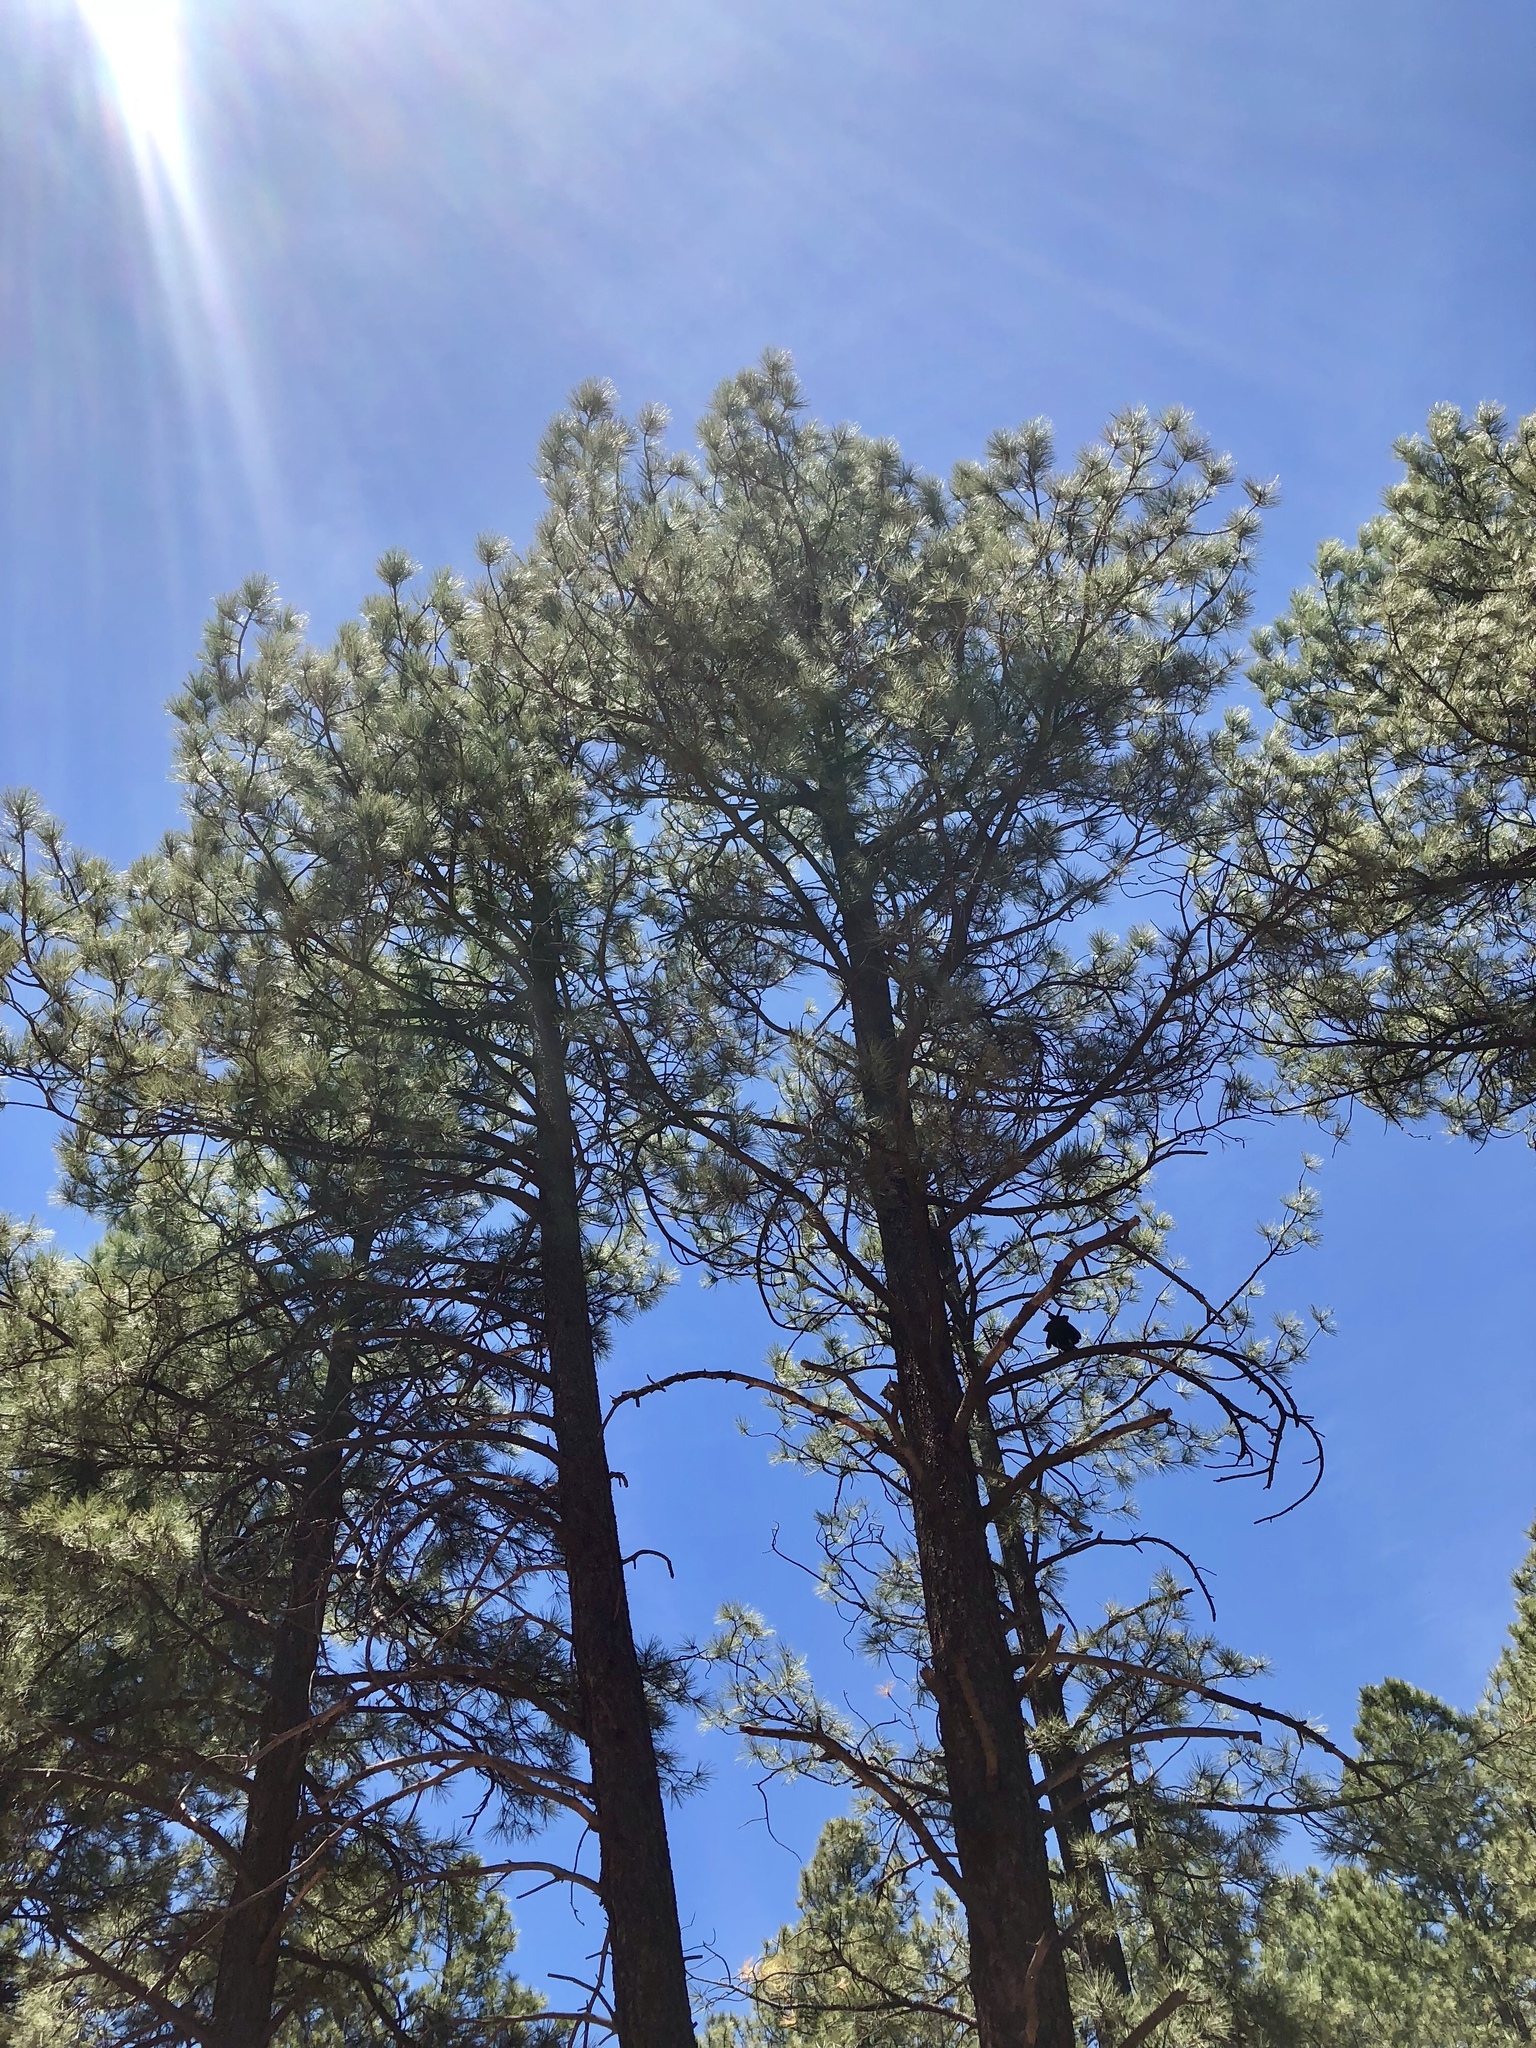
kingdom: Plantae
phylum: Tracheophyta
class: Pinopsida
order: Pinales
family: Pinaceae
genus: Pinus
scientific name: Pinus ponderosa
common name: Western yellow-pine
